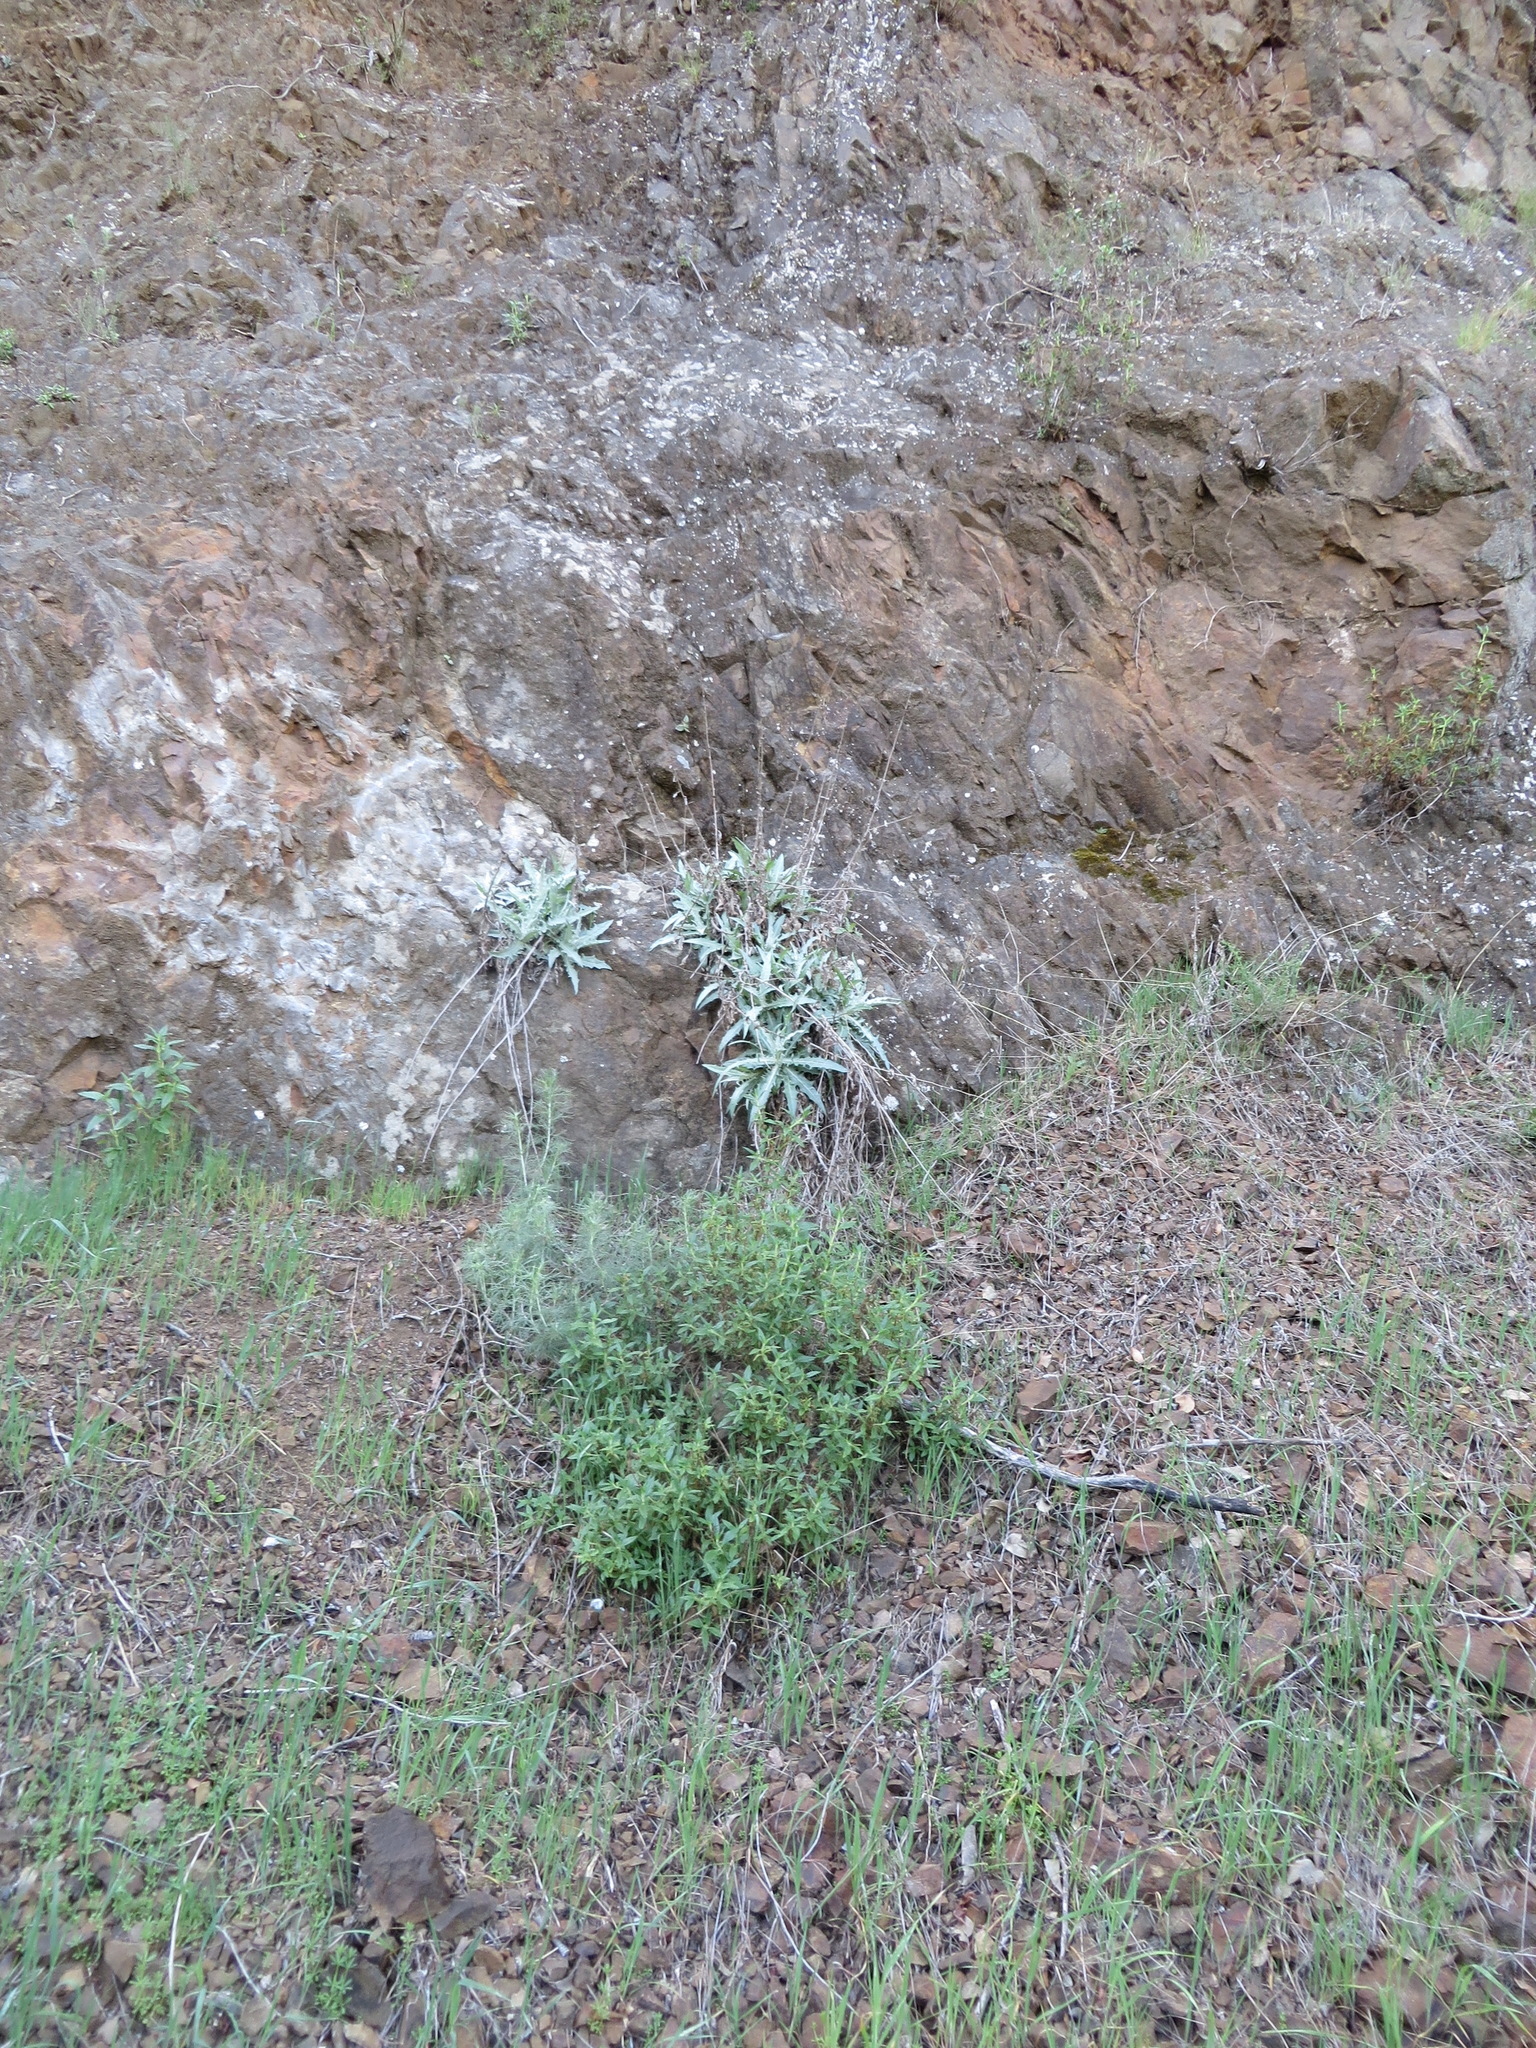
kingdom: Plantae
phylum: Tracheophyta
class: Magnoliopsida
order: Asterales
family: Asteraceae
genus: Stephanomeria
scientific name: Stephanomeria cichoriacea
